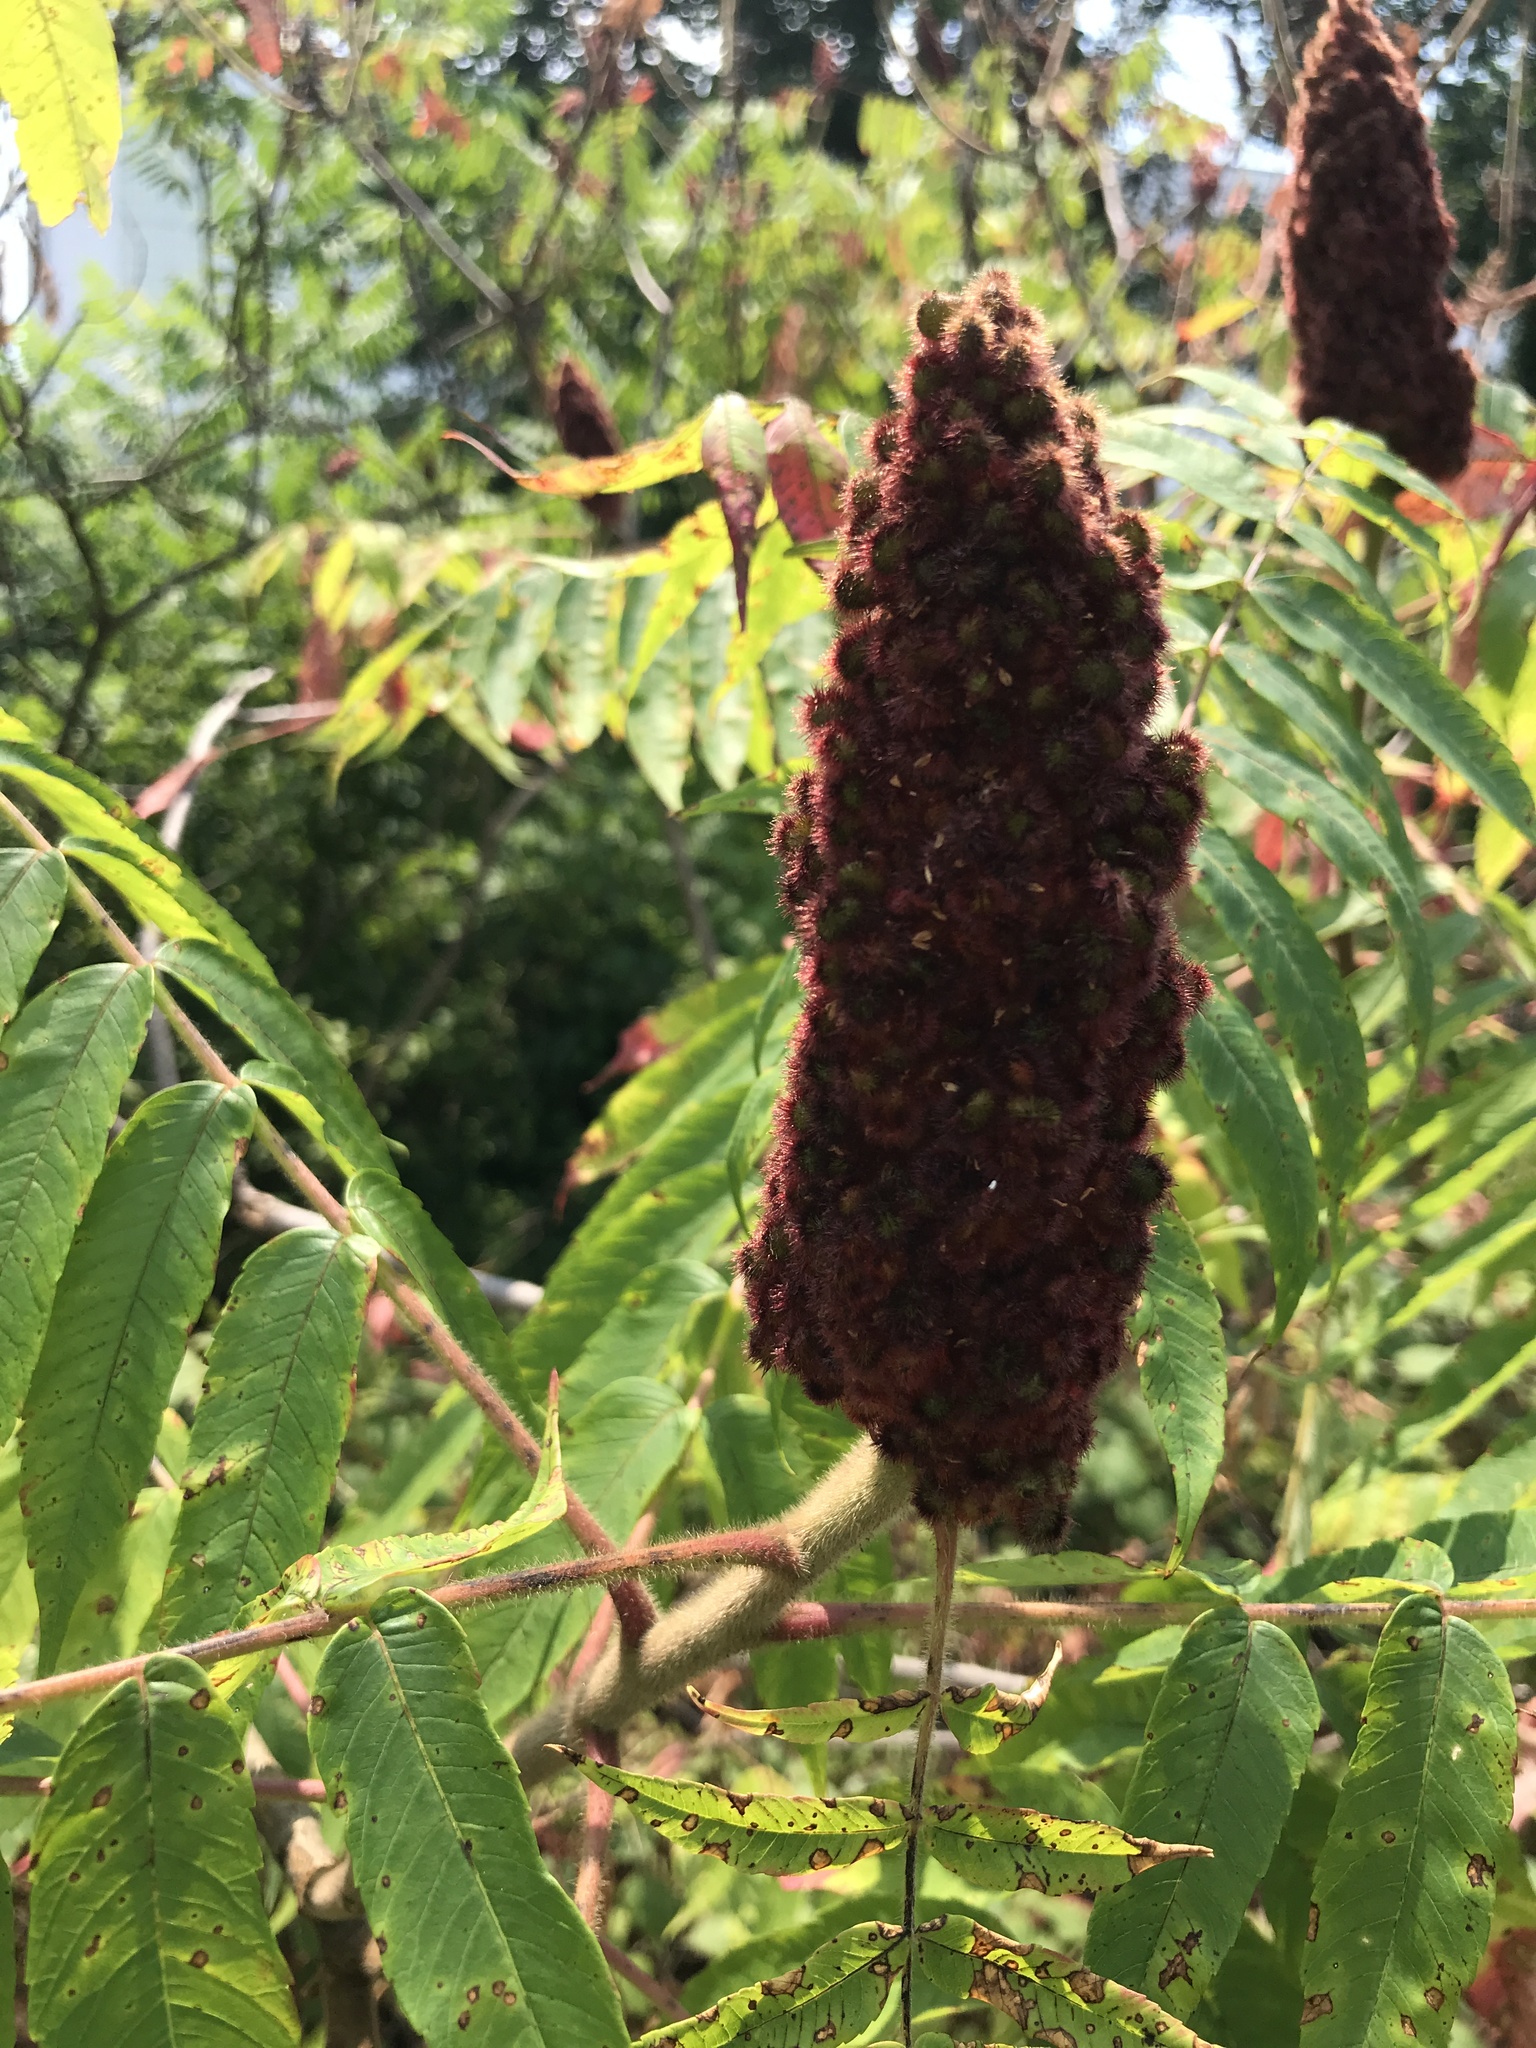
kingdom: Plantae
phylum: Tracheophyta
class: Magnoliopsida
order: Sapindales
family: Anacardiaceae
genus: Rhus
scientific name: Rhus typhina
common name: Staghorn sumac
